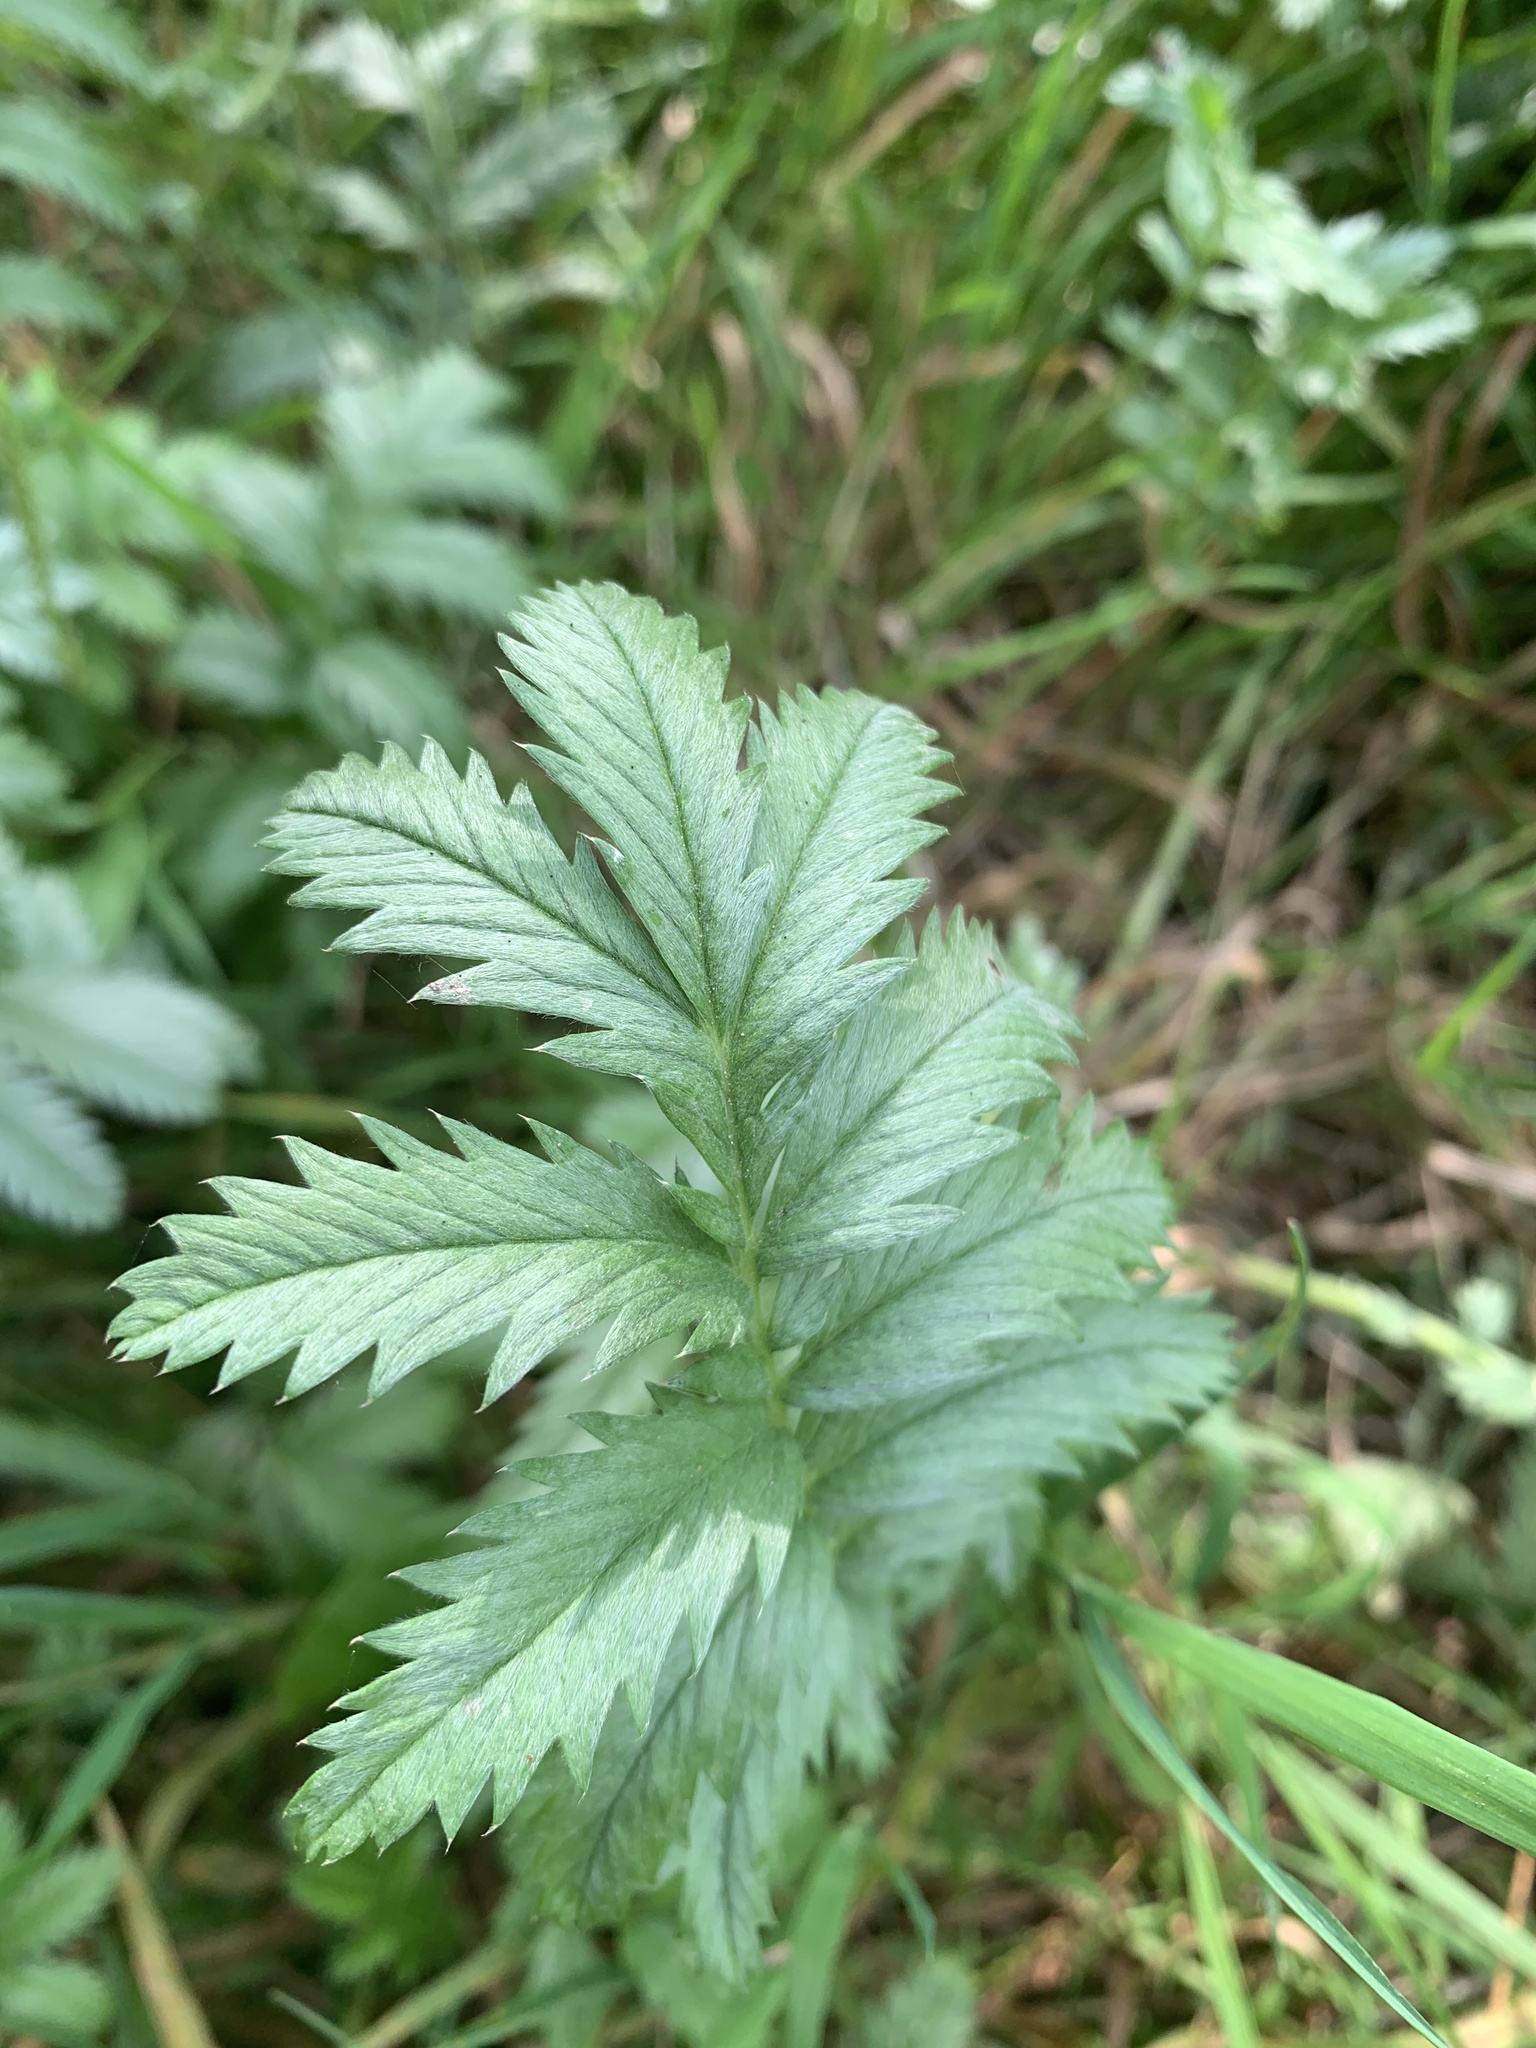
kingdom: Plantae
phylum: Tracheophyta
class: Magnoliopsida
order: Rosales
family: Rosaceae
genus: Argentina
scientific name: Argentina anserina
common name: Common silverweed
